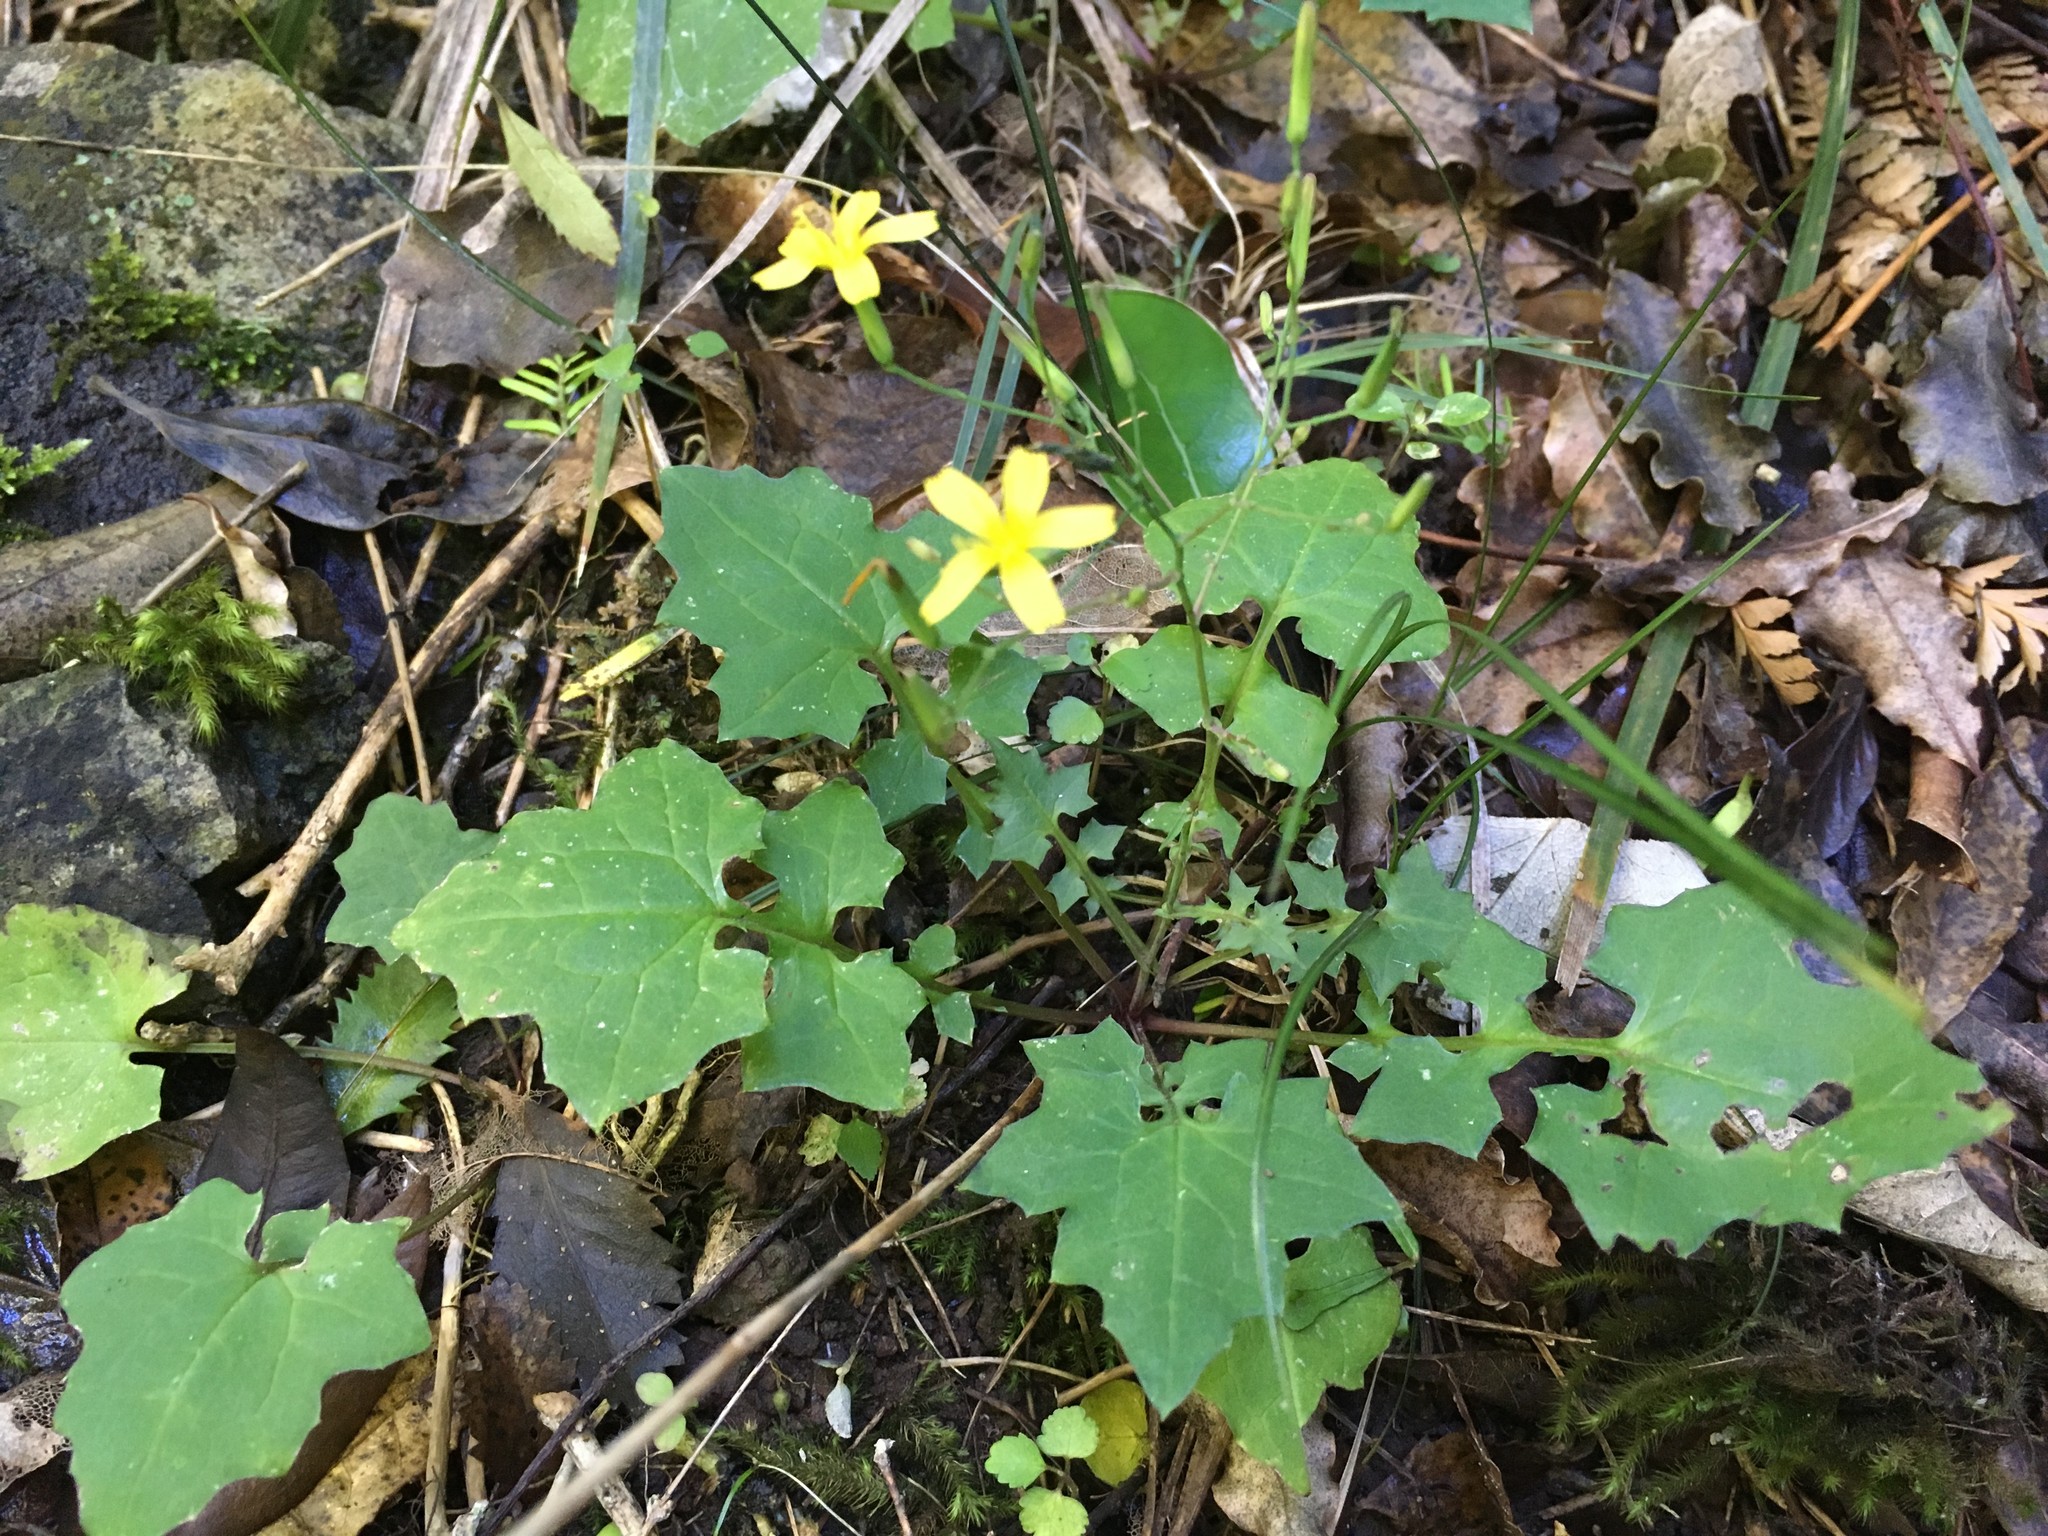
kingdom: Plantae
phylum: Tracheophyta
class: Magnoliopsida
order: Asterales
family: Asteraceae
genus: Mycelis
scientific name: Mycelis muralis
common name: Wall lettuce
